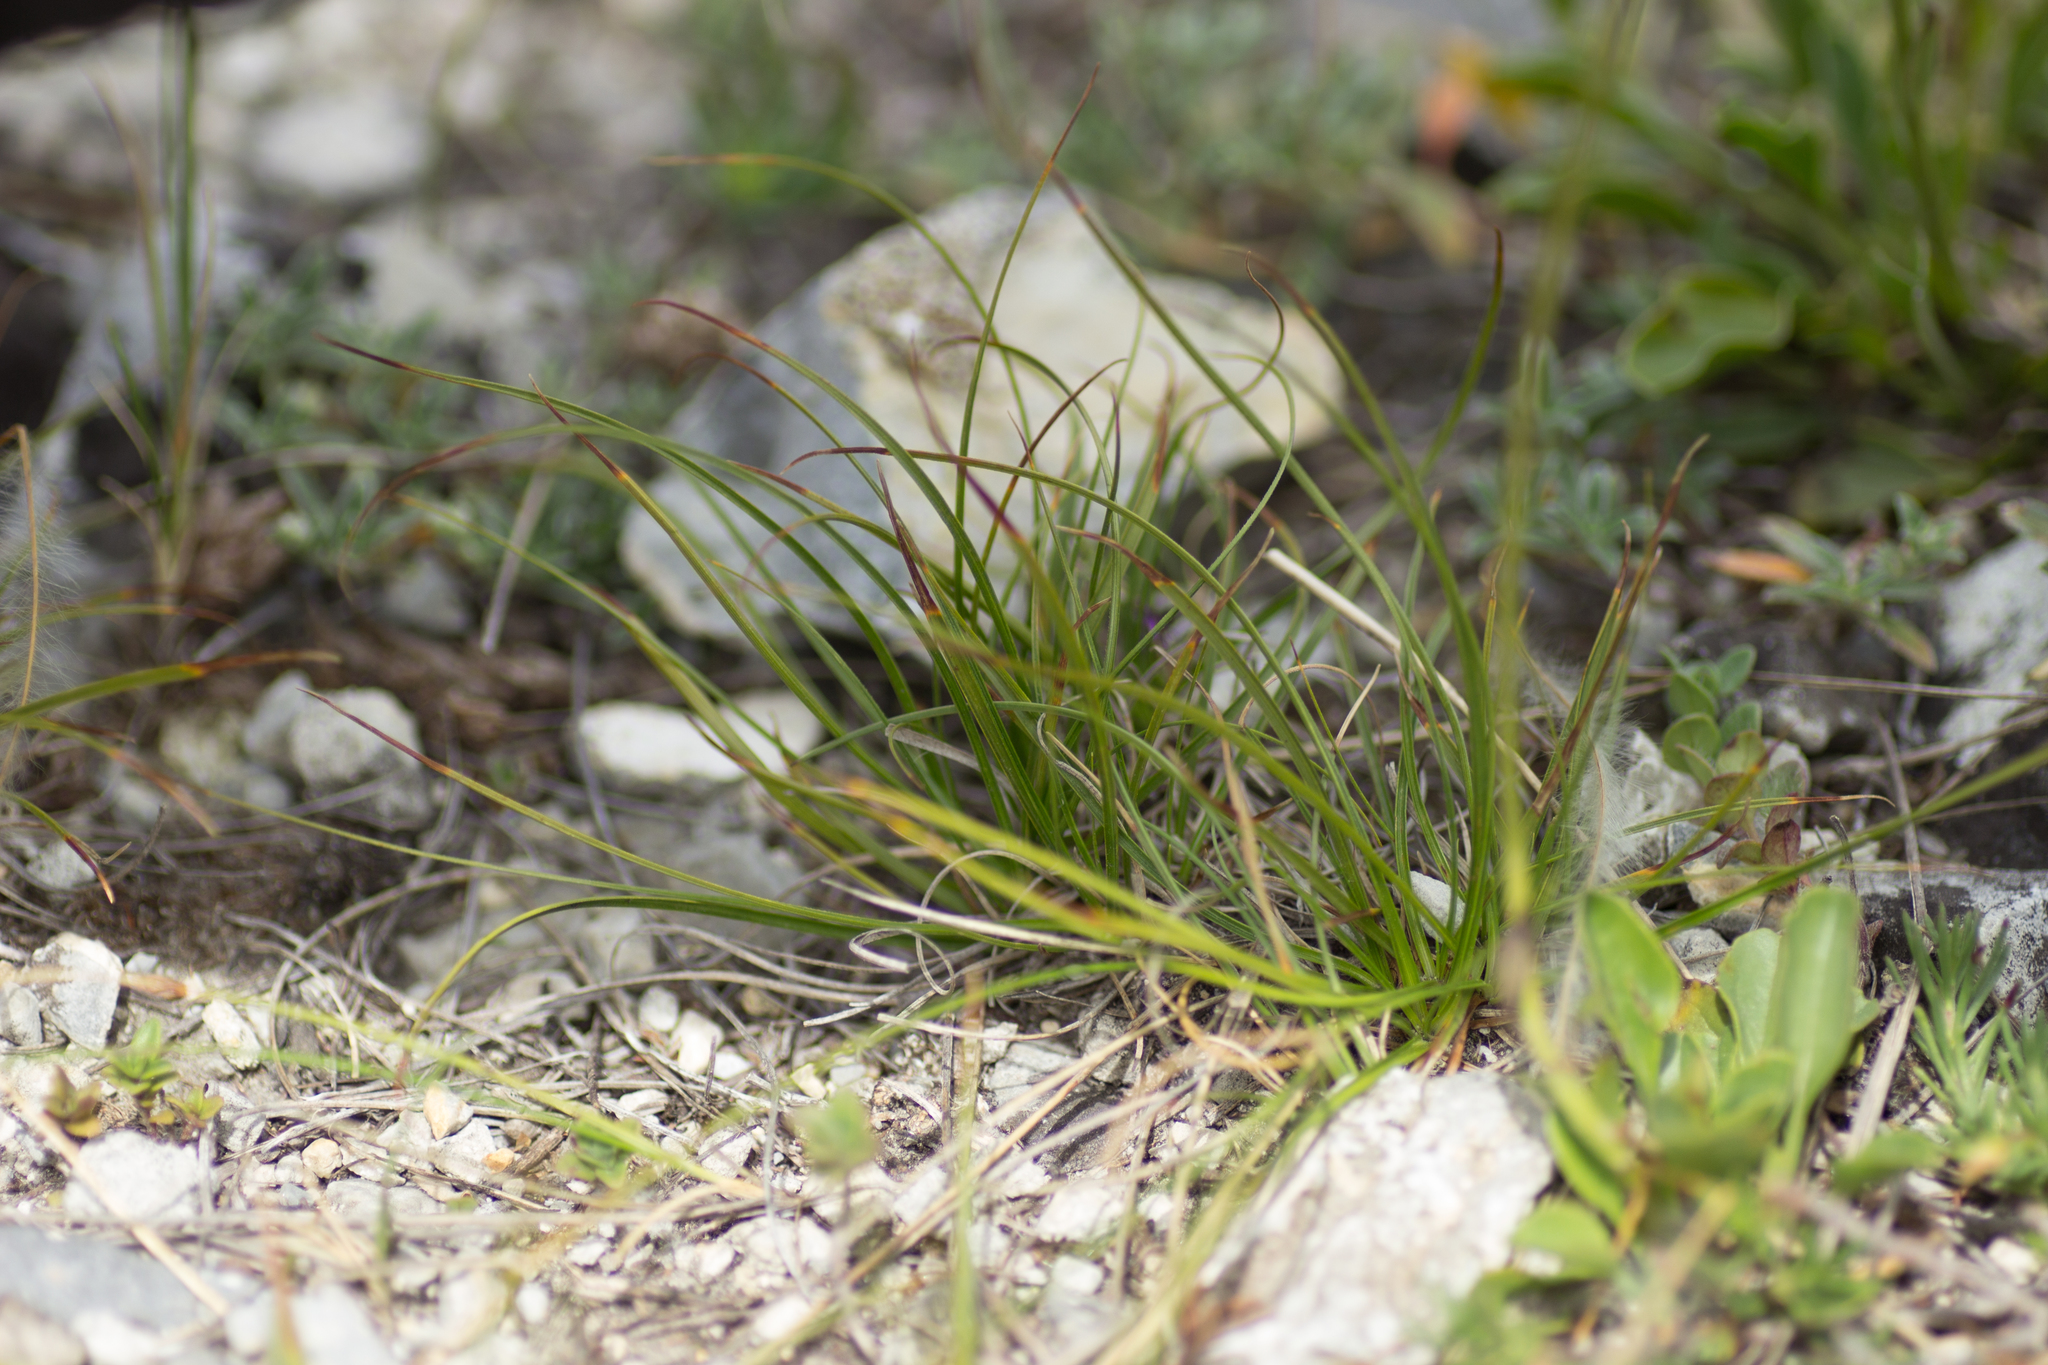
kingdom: Plantae
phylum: Tracheophyta
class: Liliopsida
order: Poales
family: Cyperaceae
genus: Carex
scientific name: Carex humilis
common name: Dwarf sedge
